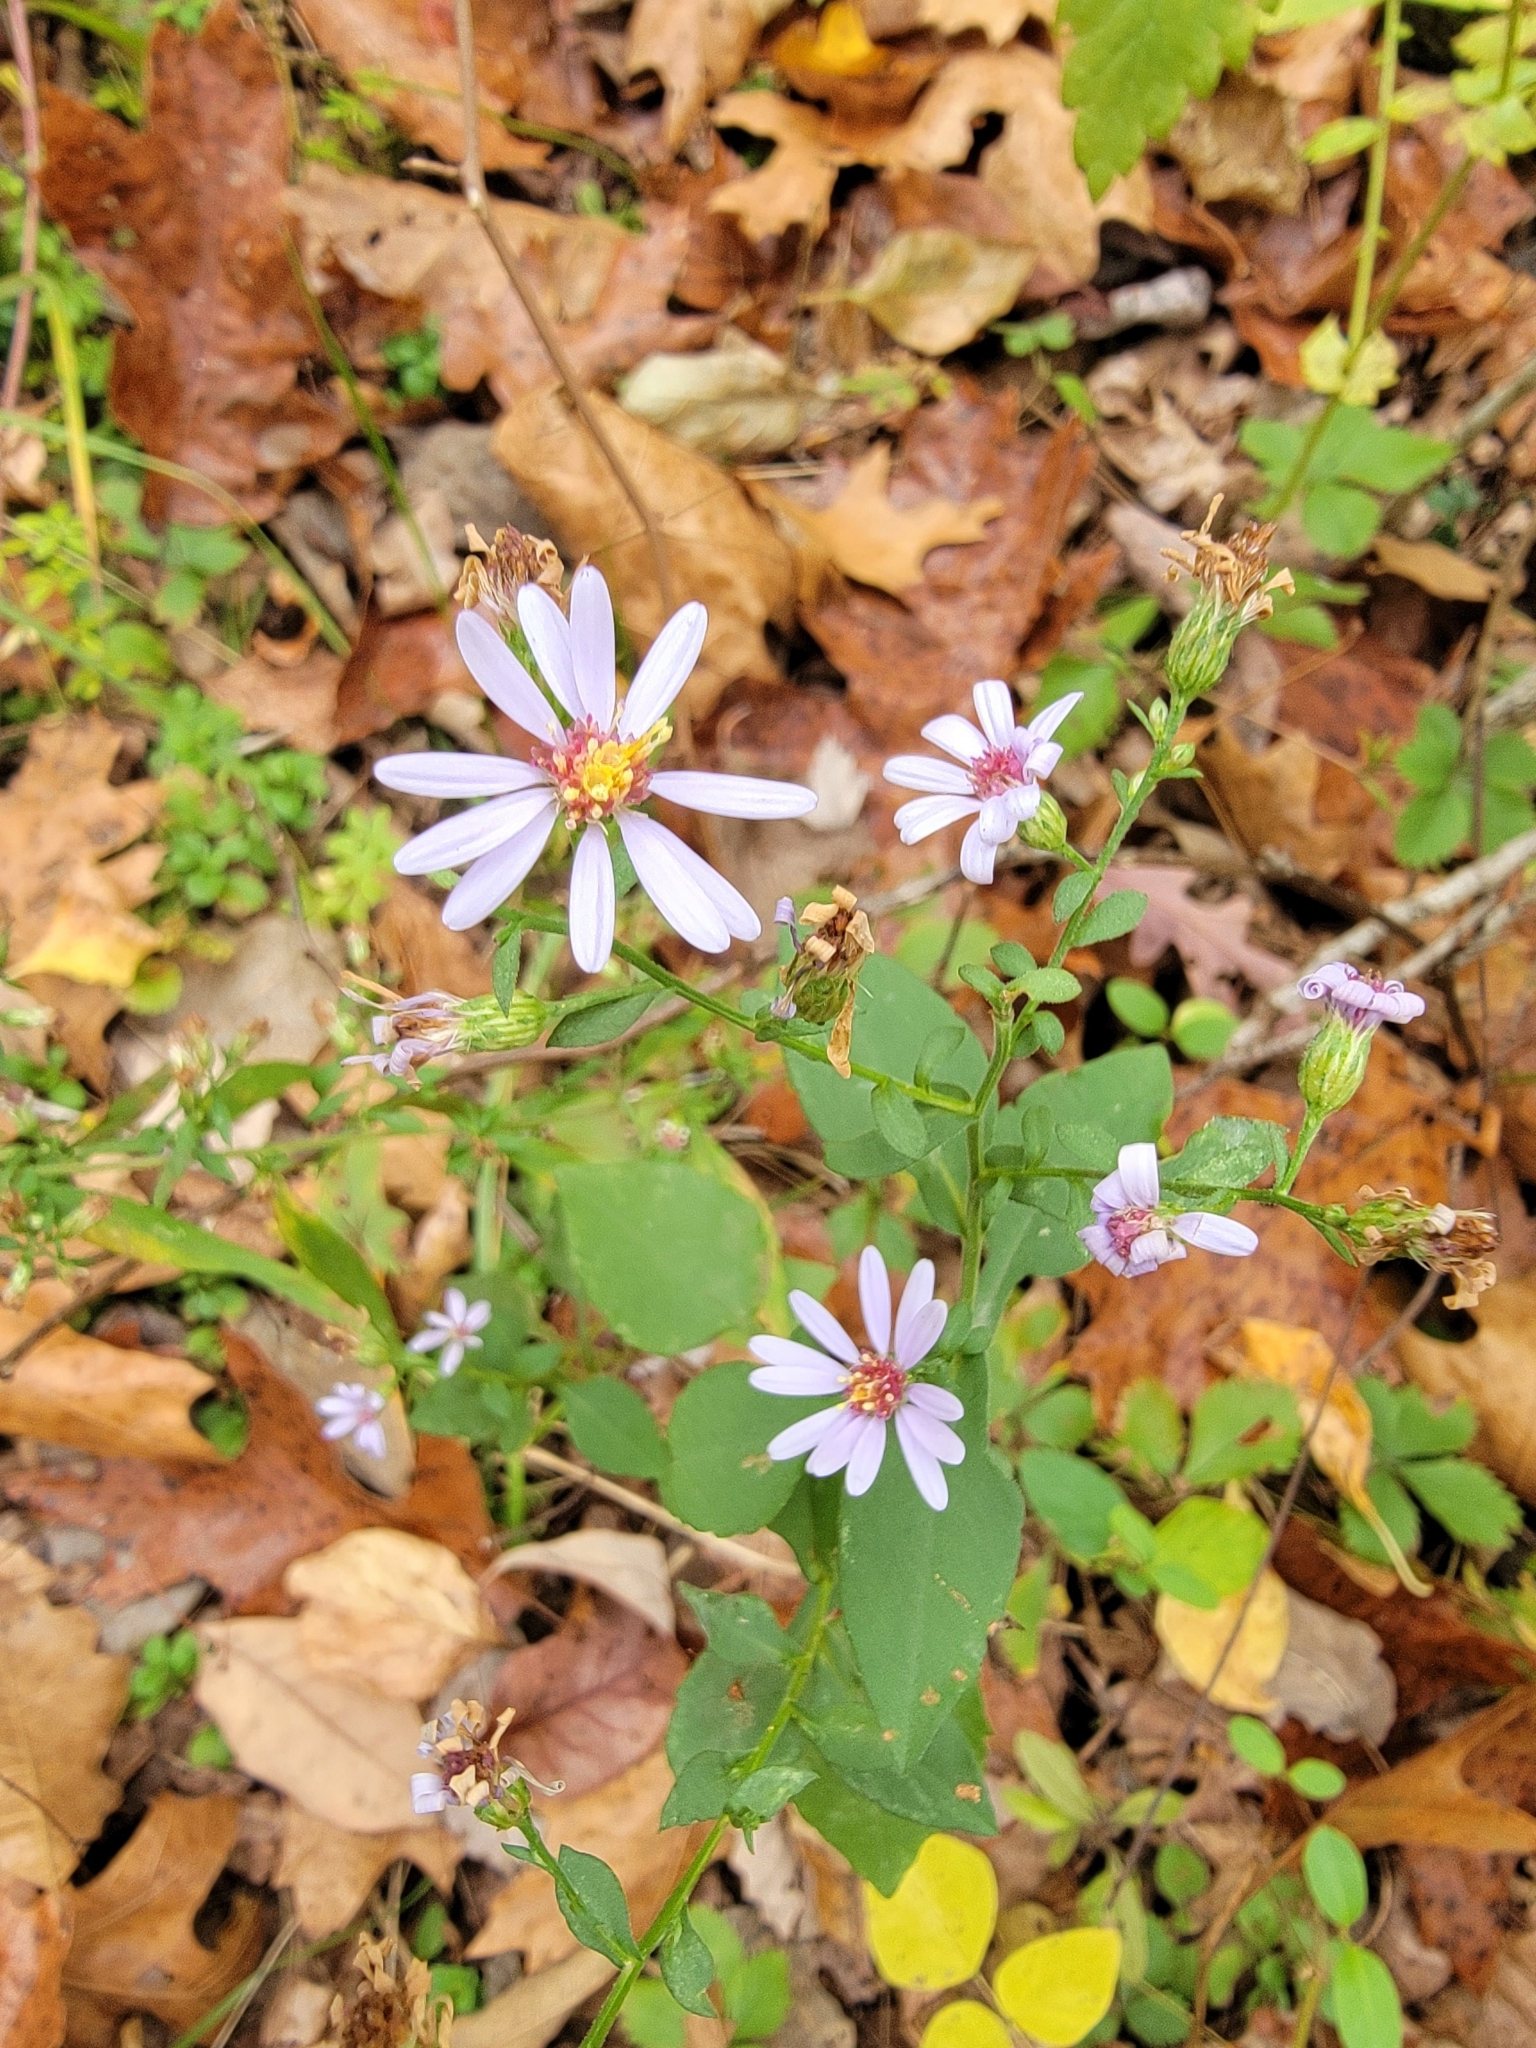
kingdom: Plantae
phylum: Tracheophyta
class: Magnoliopsida
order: Asterales
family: Asteraceae
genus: Symphyotrichum
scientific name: Symphyotrichum drummondii
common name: Drummond's aster
